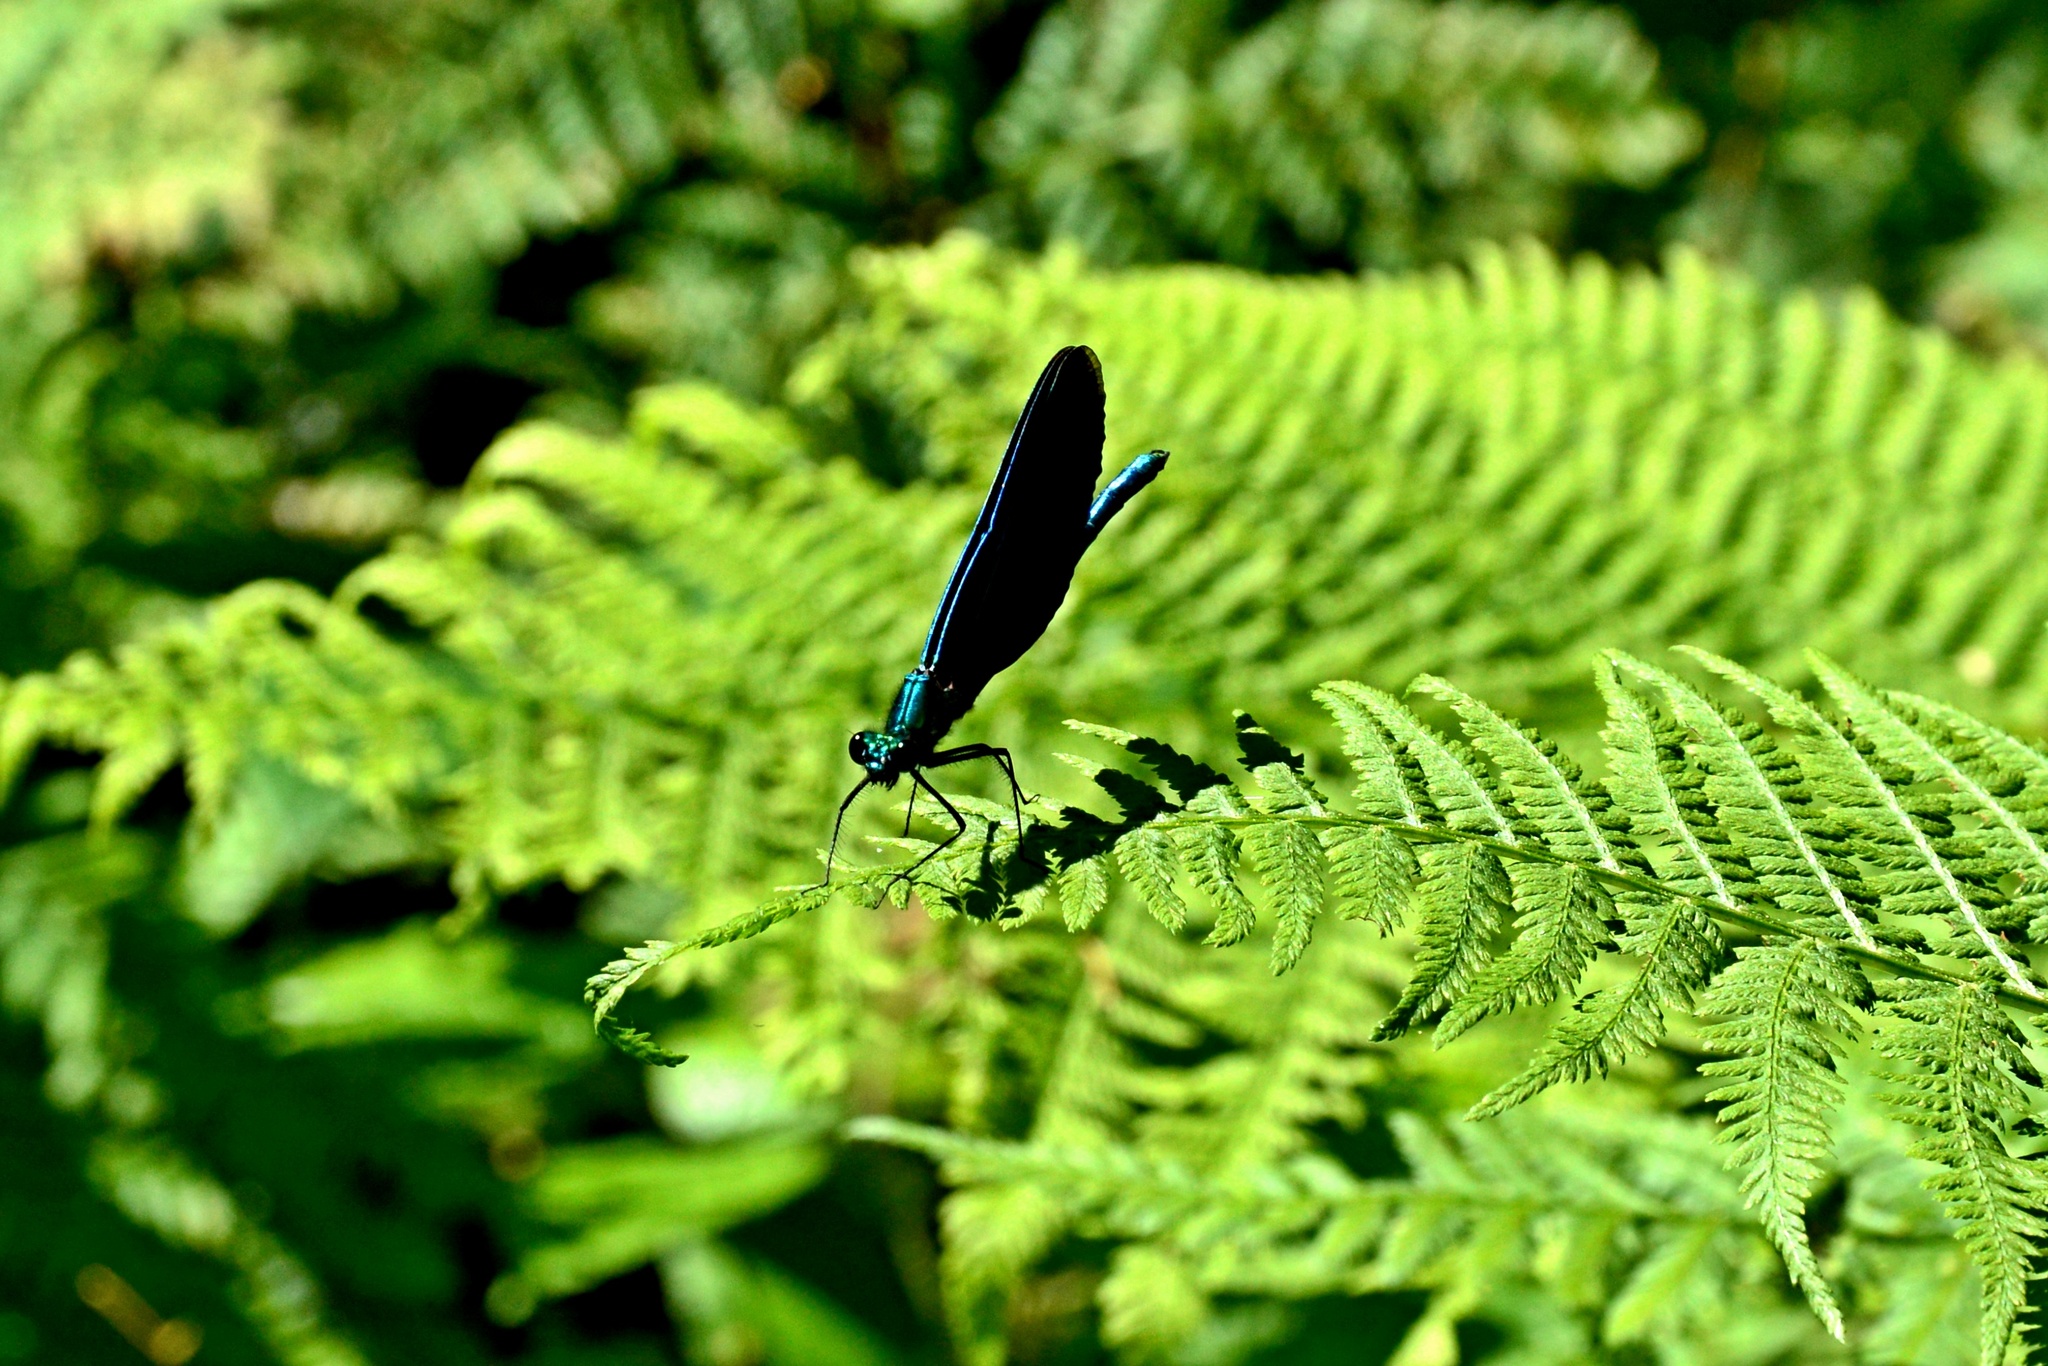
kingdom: Animalia
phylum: Arthropoda
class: Insecta
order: Odonata
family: Calopterygidae
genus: Calopteryx
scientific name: Calopteryx virgo
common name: Beautiful demoiselle
